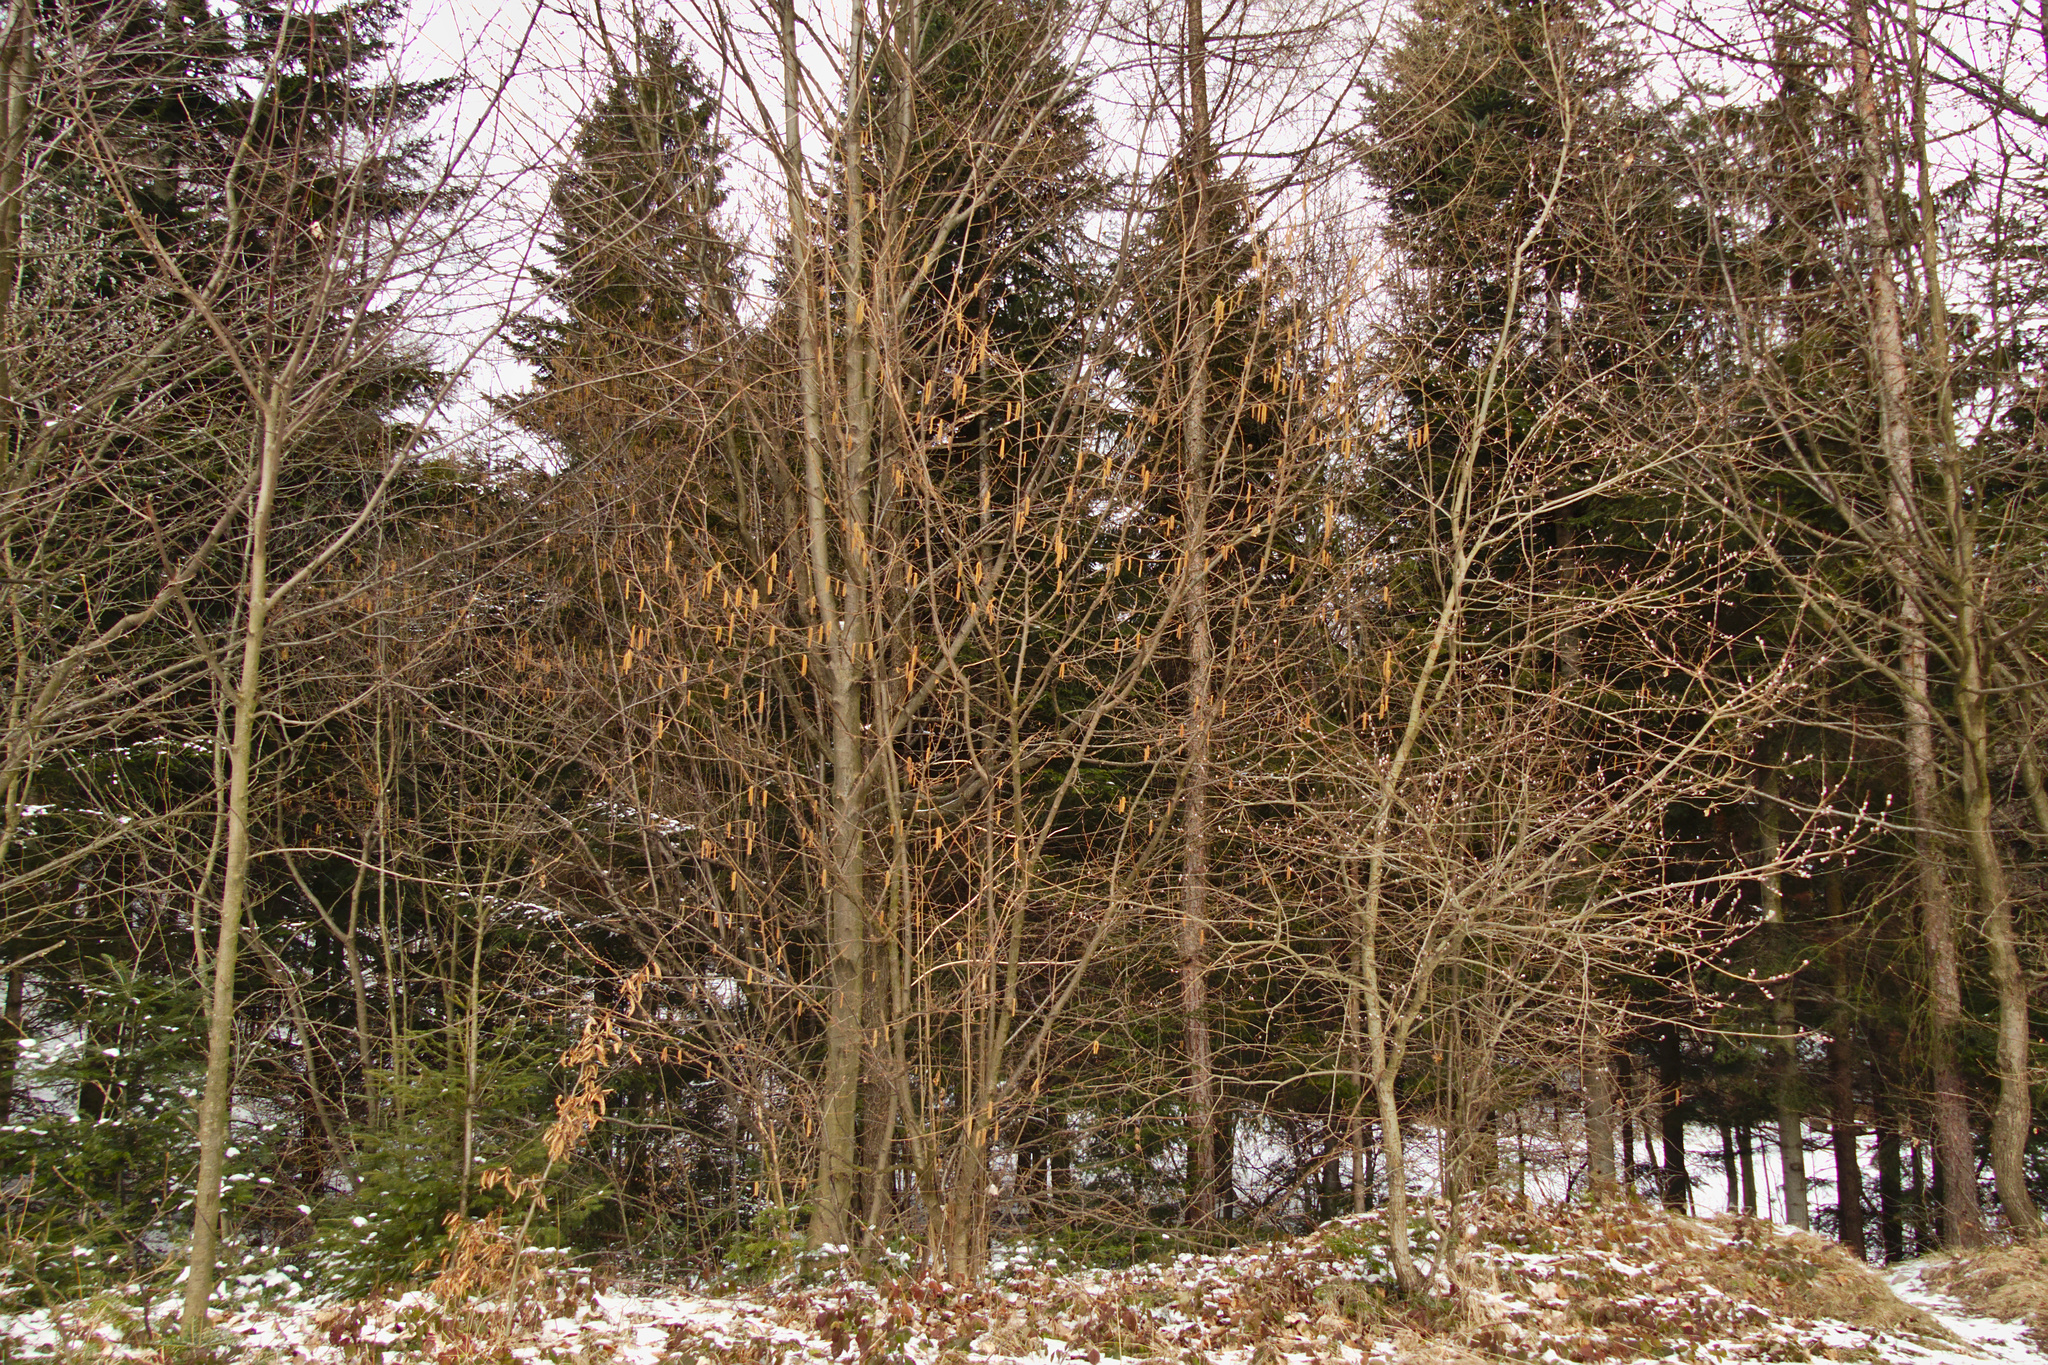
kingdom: Plantae
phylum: Tracheophyta
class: Magnoliopsida
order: Fagales
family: Betulaceae
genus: Corylus
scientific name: Corylus avellana
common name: European hazel
